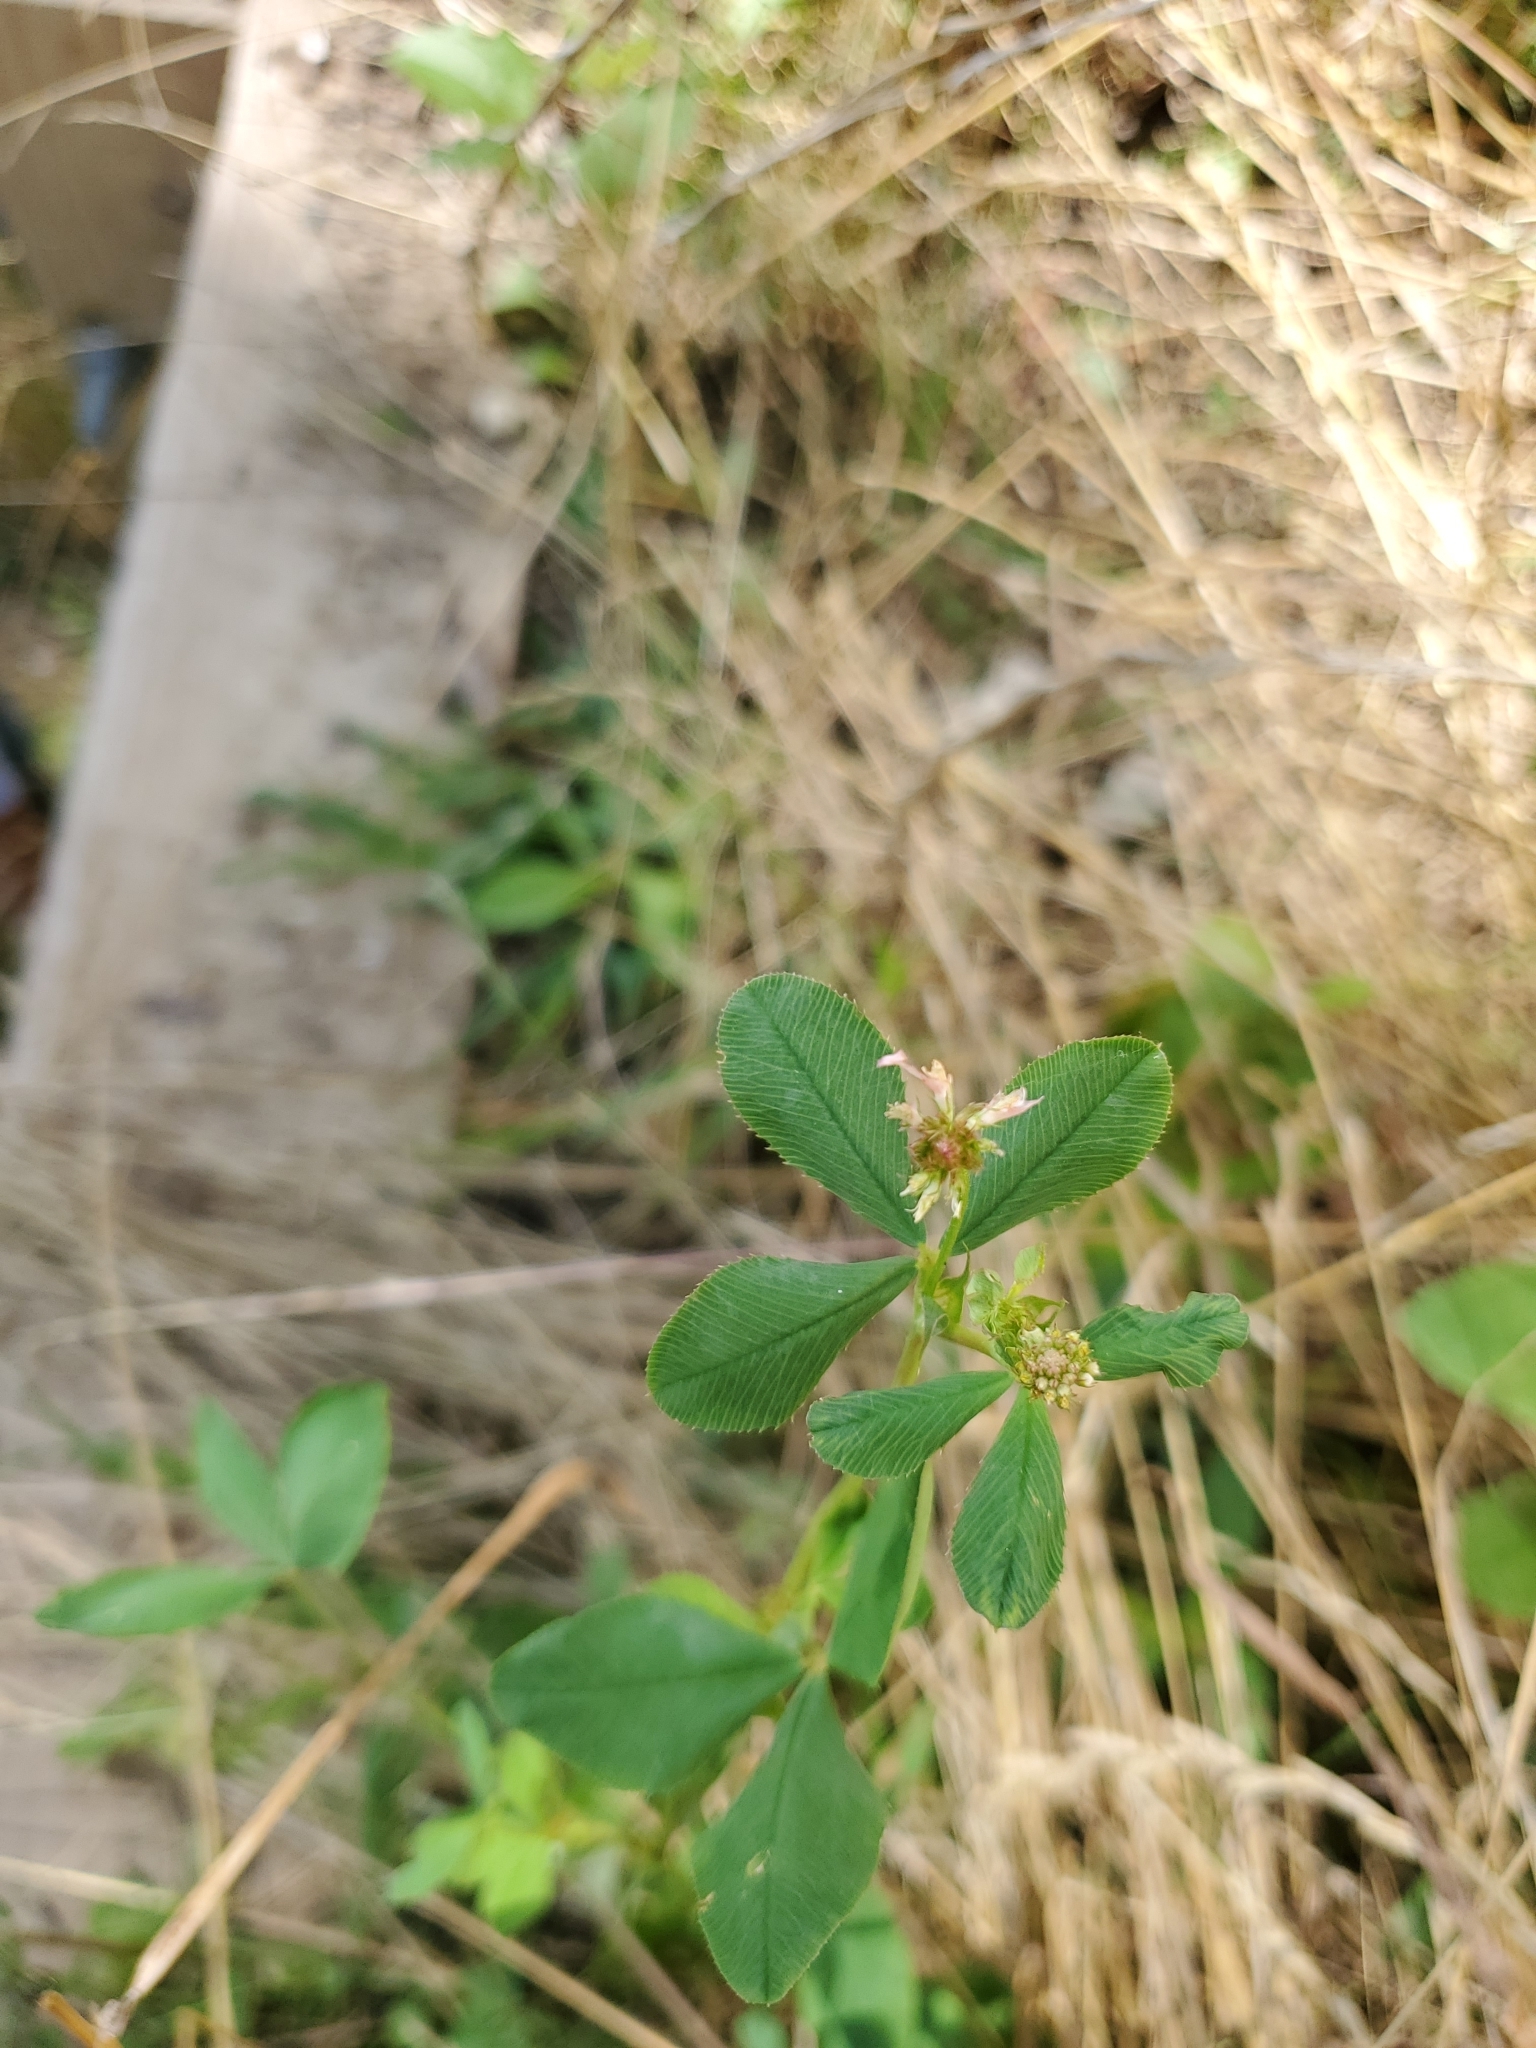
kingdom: Plantae
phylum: Tracheophyta
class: Magnoliopsida
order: Fabales
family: Fabaceae
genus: Trifolium
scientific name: Trifolium hybridum
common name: Alsike clover
